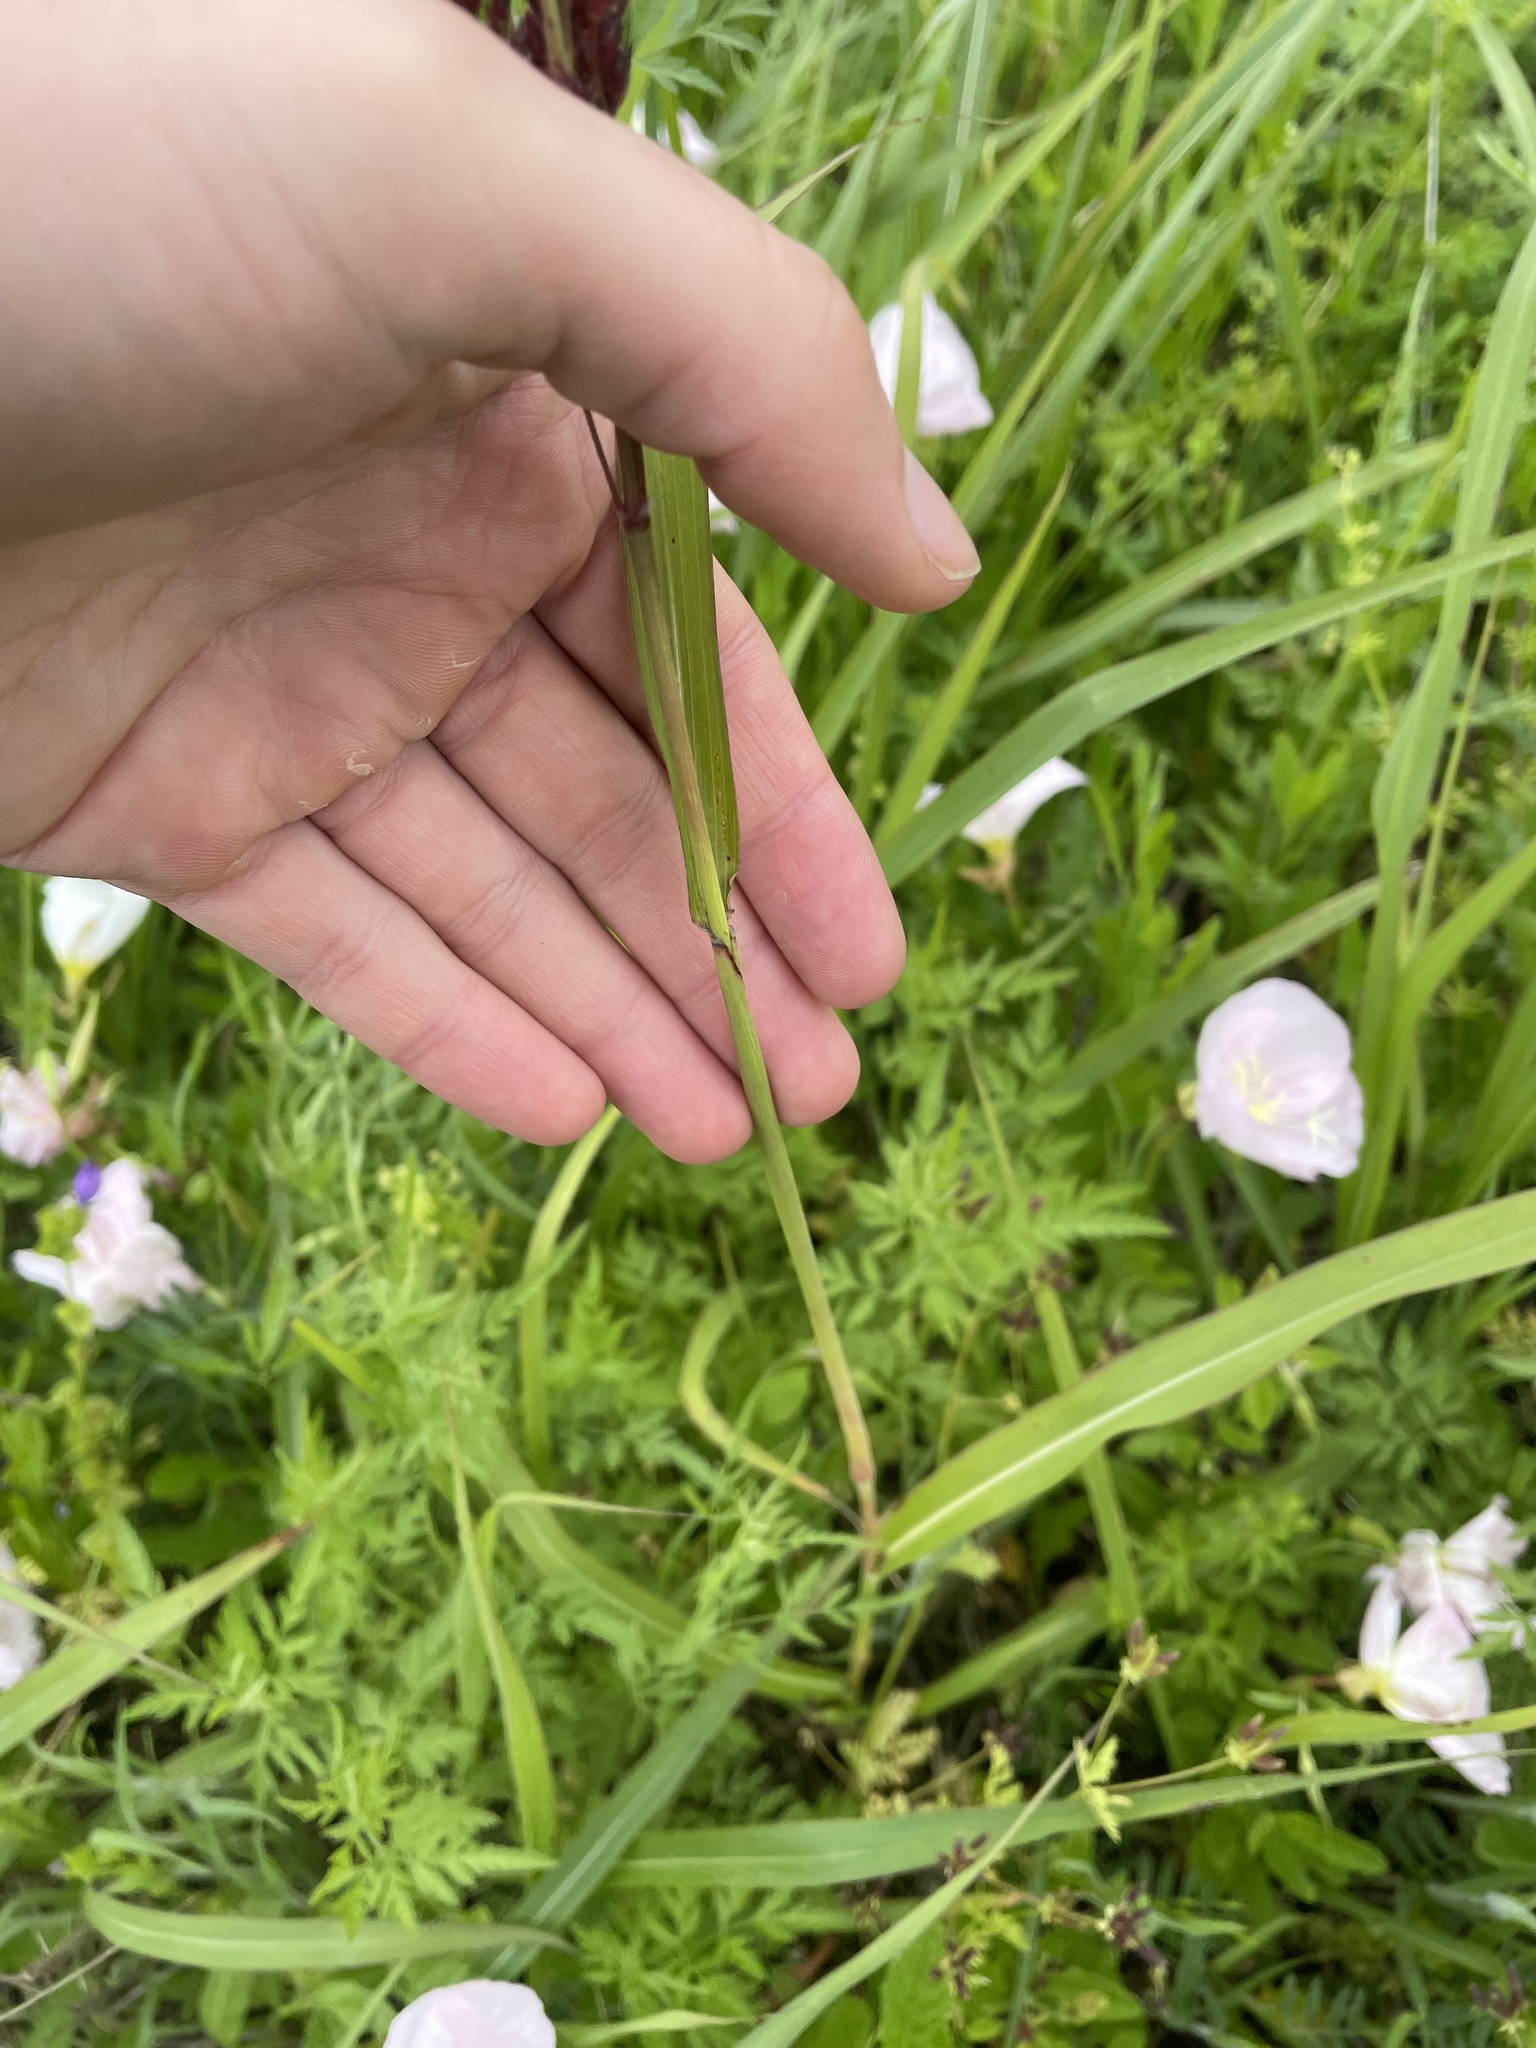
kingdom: Plantae
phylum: Tracheophyta
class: Liliopsida
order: Poales
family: Poaceae
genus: Sorghum
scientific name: Sorghum halepense
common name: Johnson-grass
